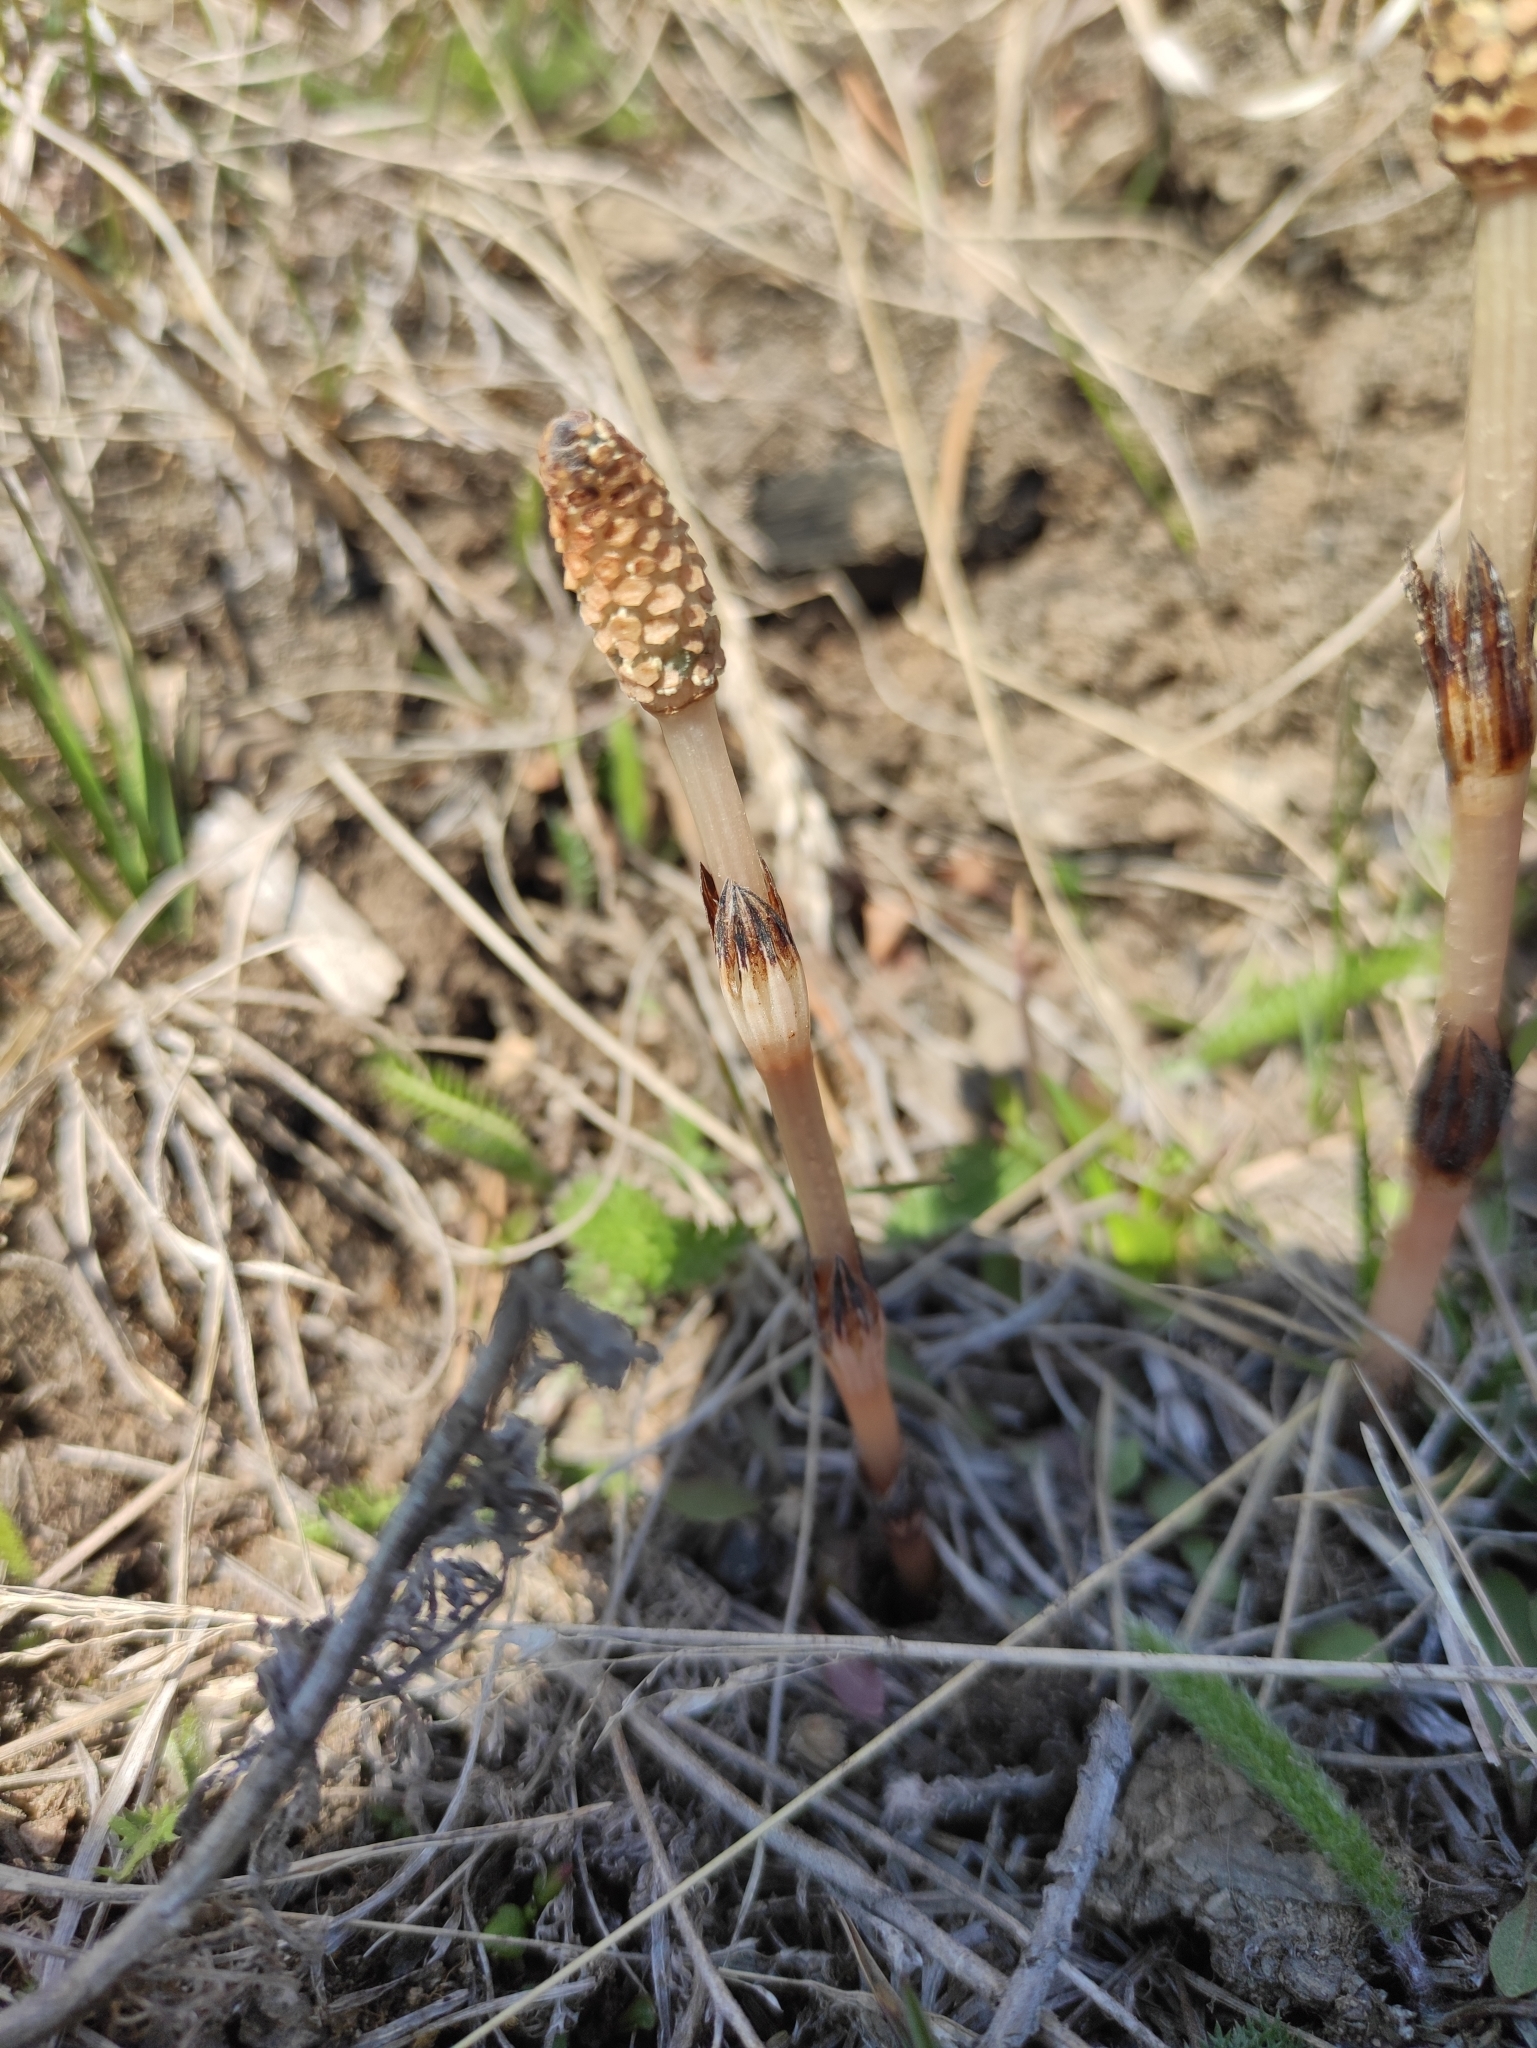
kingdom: Plantae
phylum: Tracheophyta
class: Polypodiopsida
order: Equisetales
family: Equisetaceae
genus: Equisetum
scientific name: Equisetum arvense
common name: Field horsetail
